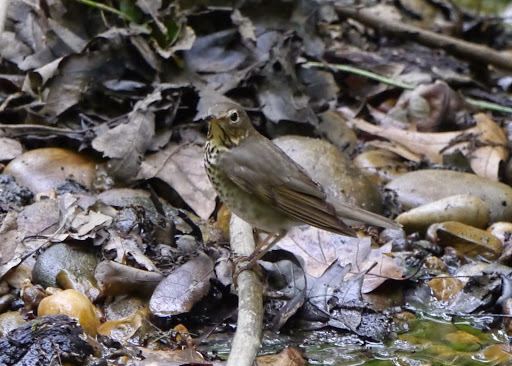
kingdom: Animalia
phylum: Chordata
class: Aves
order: Passeriformes
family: Turdidae
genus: Catharus
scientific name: Catharus ustulatus
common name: Swainson's thrush
